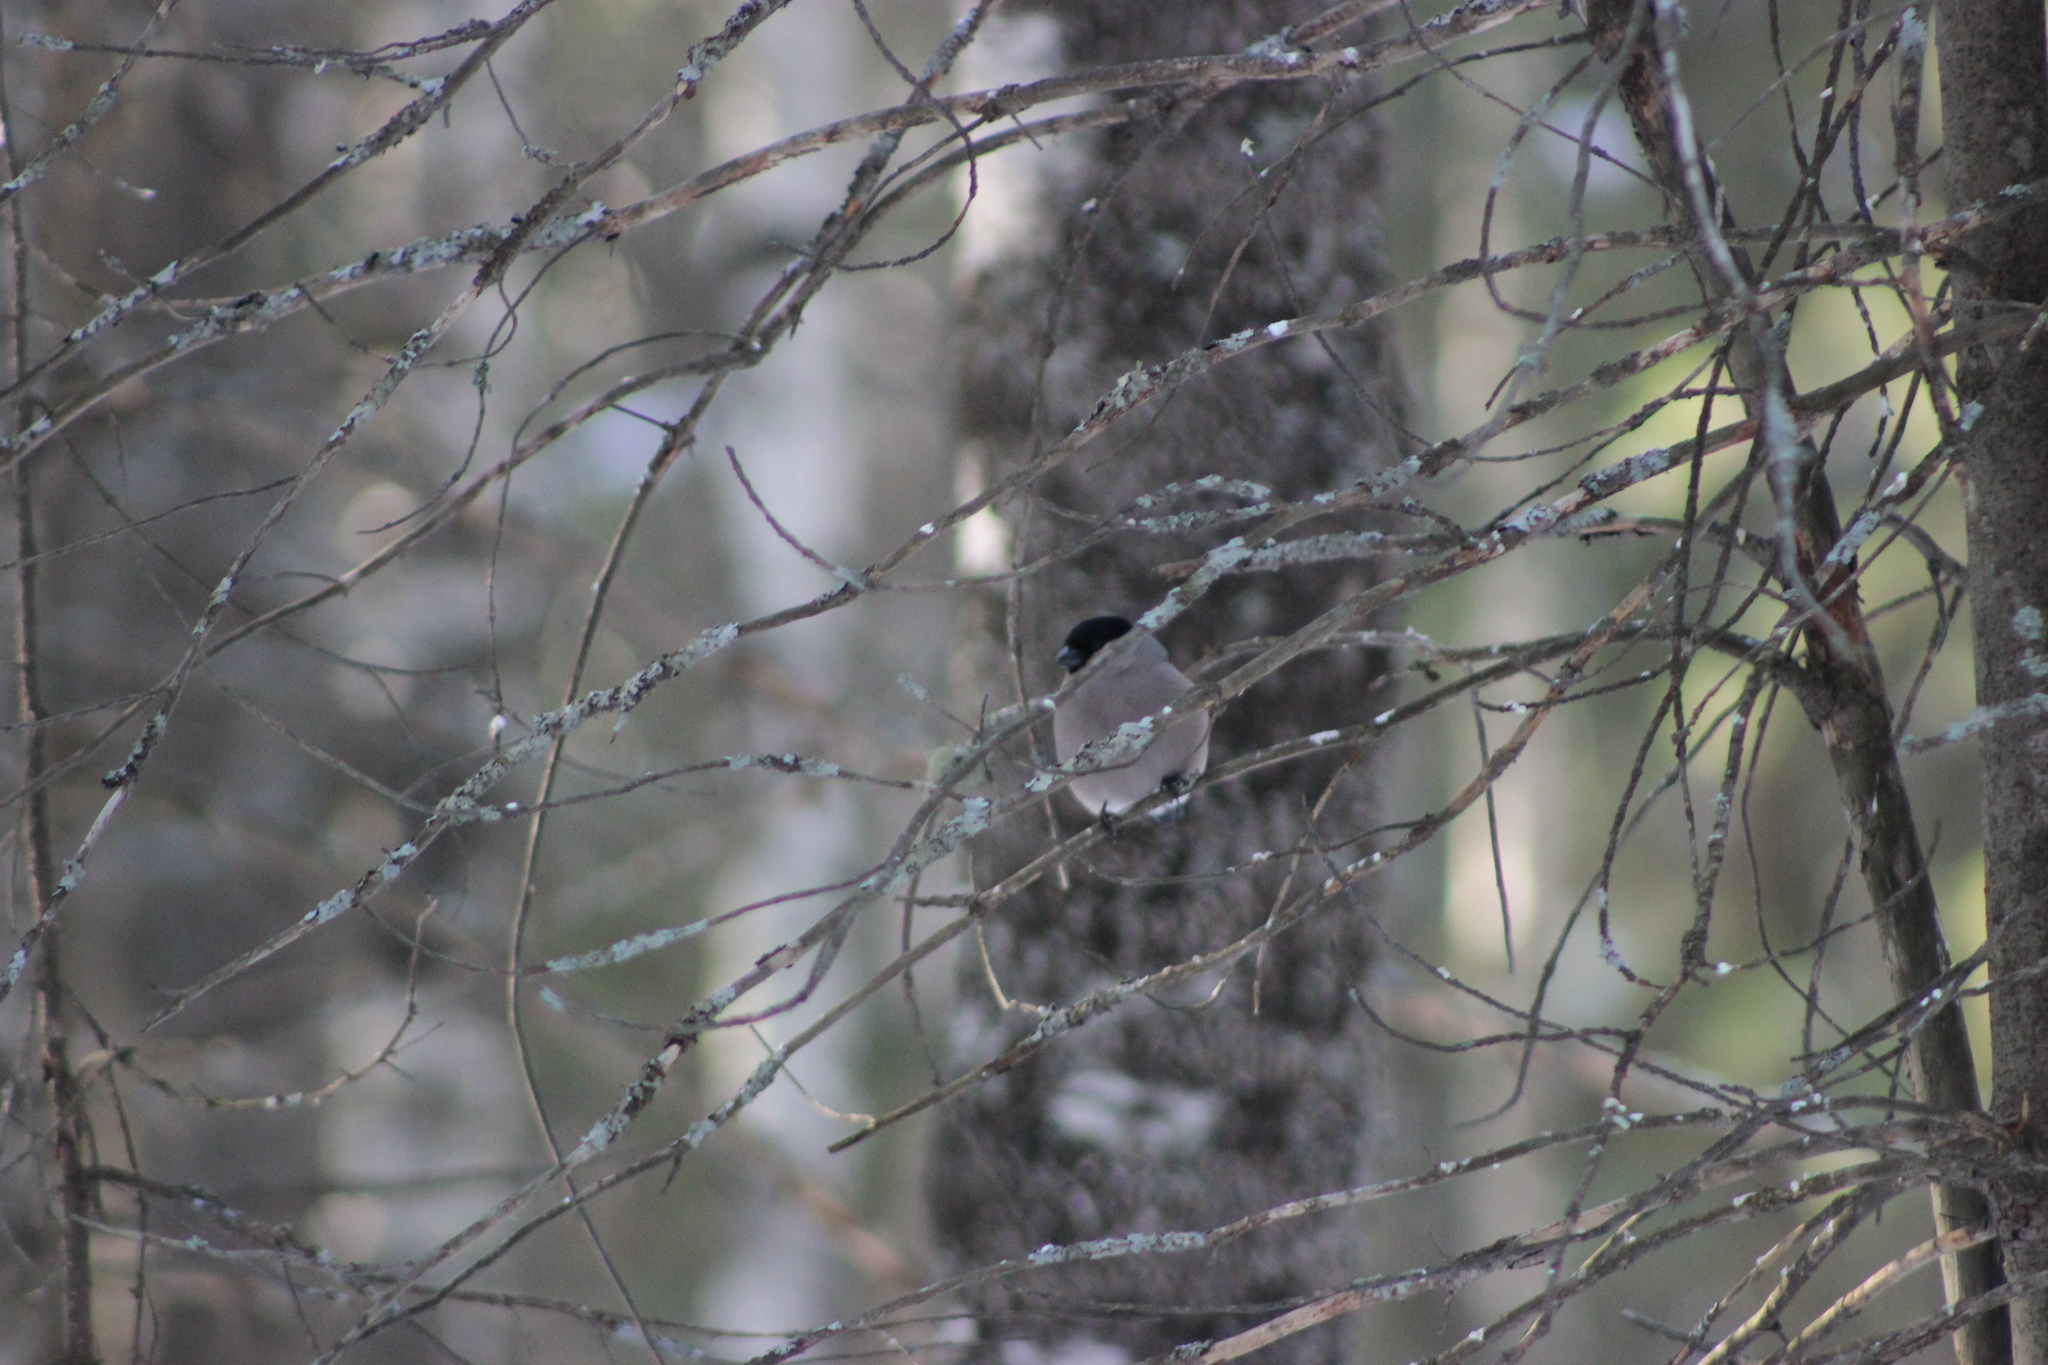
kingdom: Animalia
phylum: Chordata
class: Aves
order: Passeriformes
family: Fringillidae
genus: Pyrrhula
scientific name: Pyrrhula pyrrhula
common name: Eurasian bullfinch
